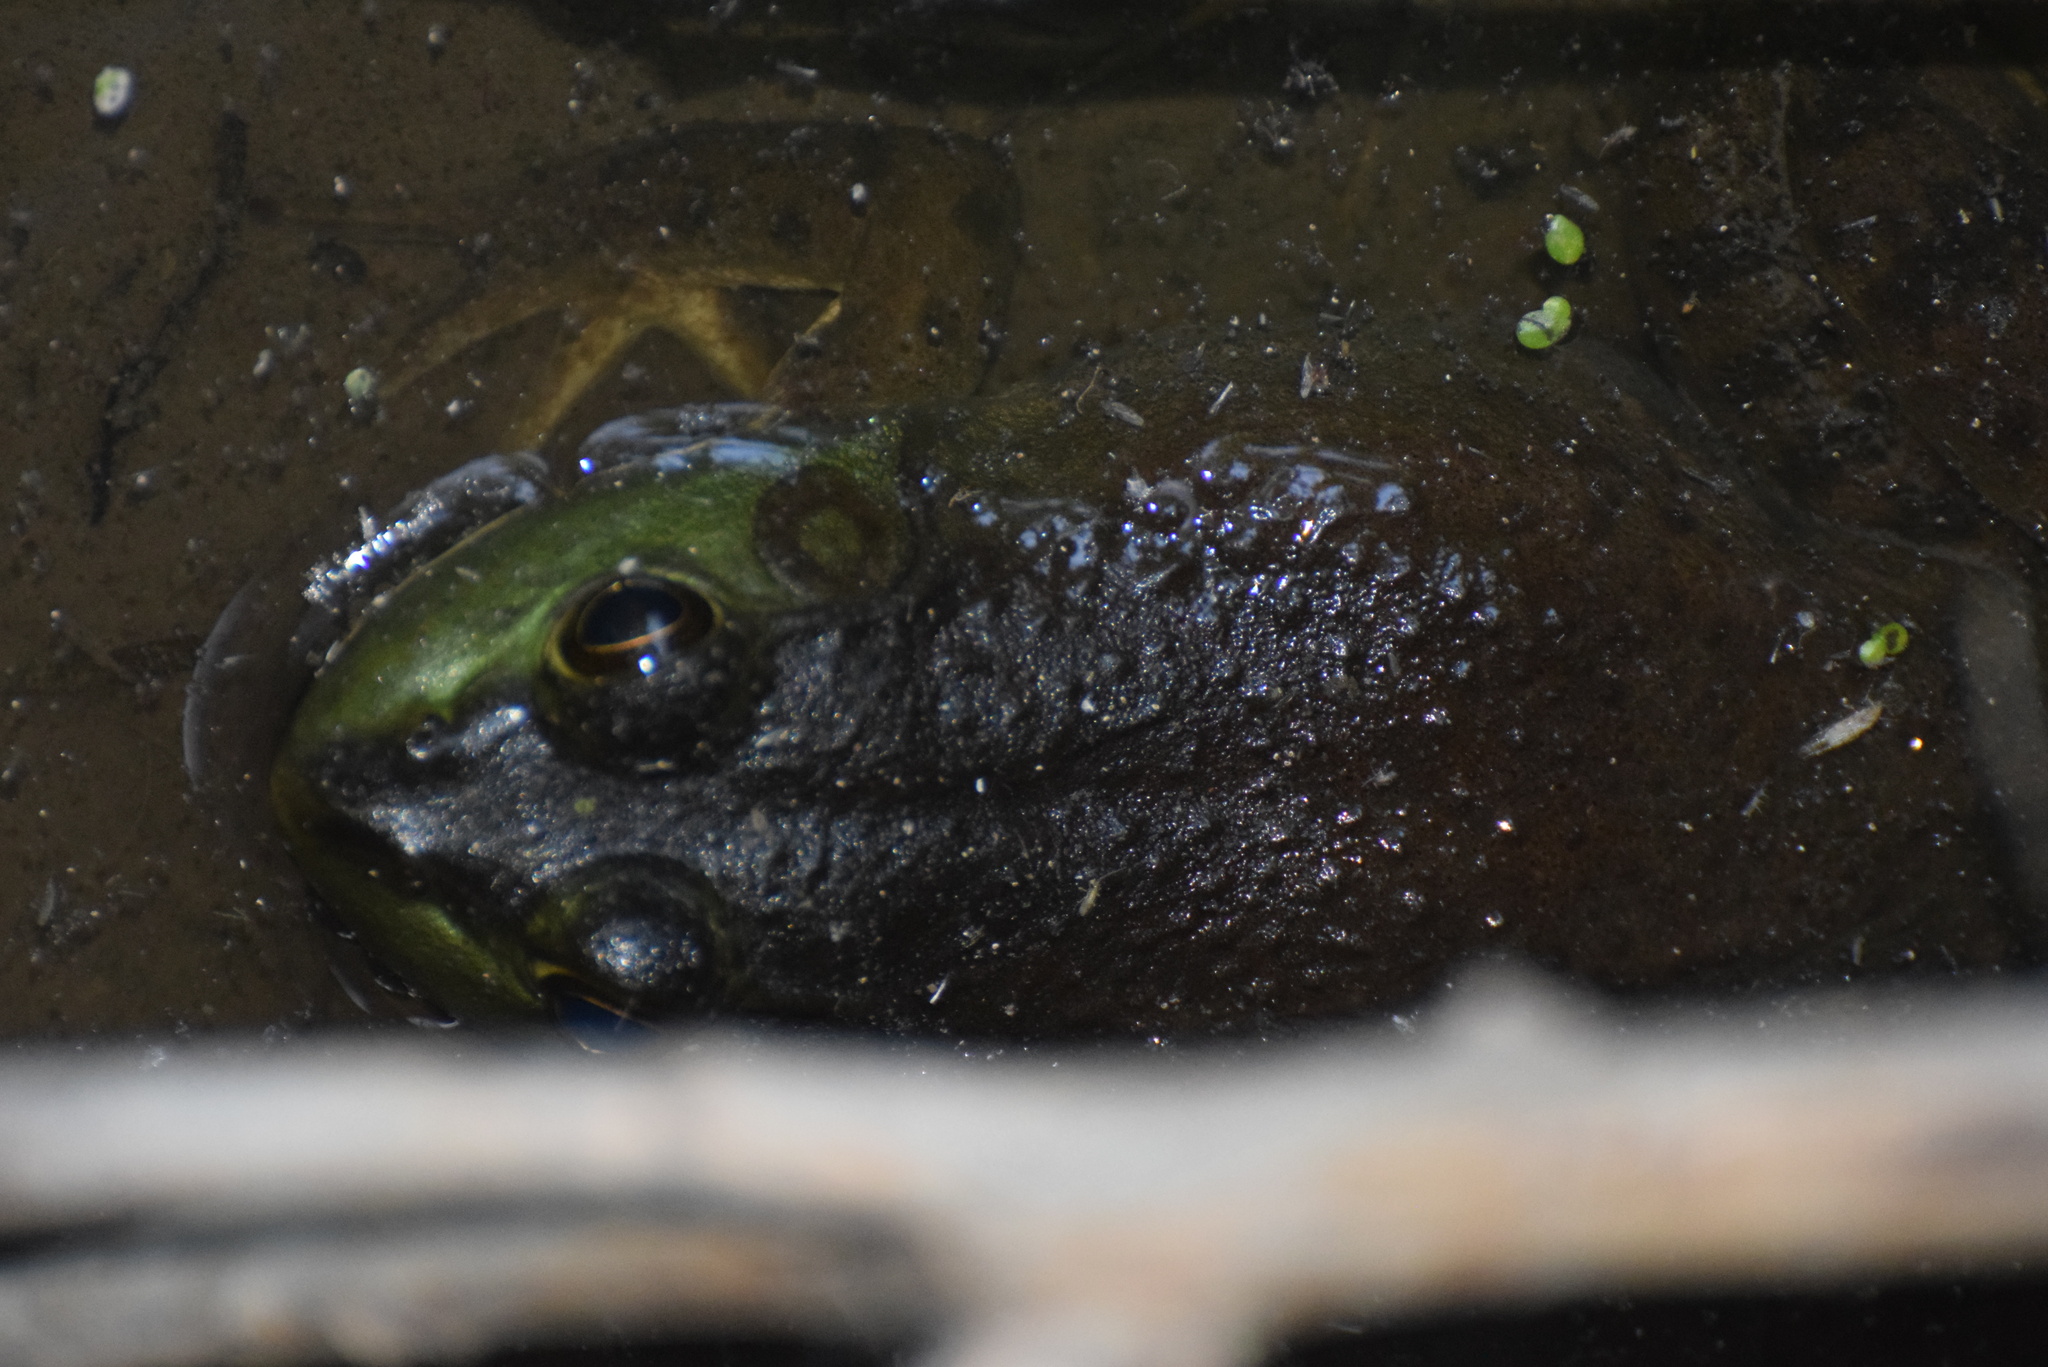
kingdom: Animalia
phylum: Chordata
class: Amphibia
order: Anura
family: Ranidae
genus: Lithobates
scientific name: Lithobates catesbeianus
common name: American bullfrog
